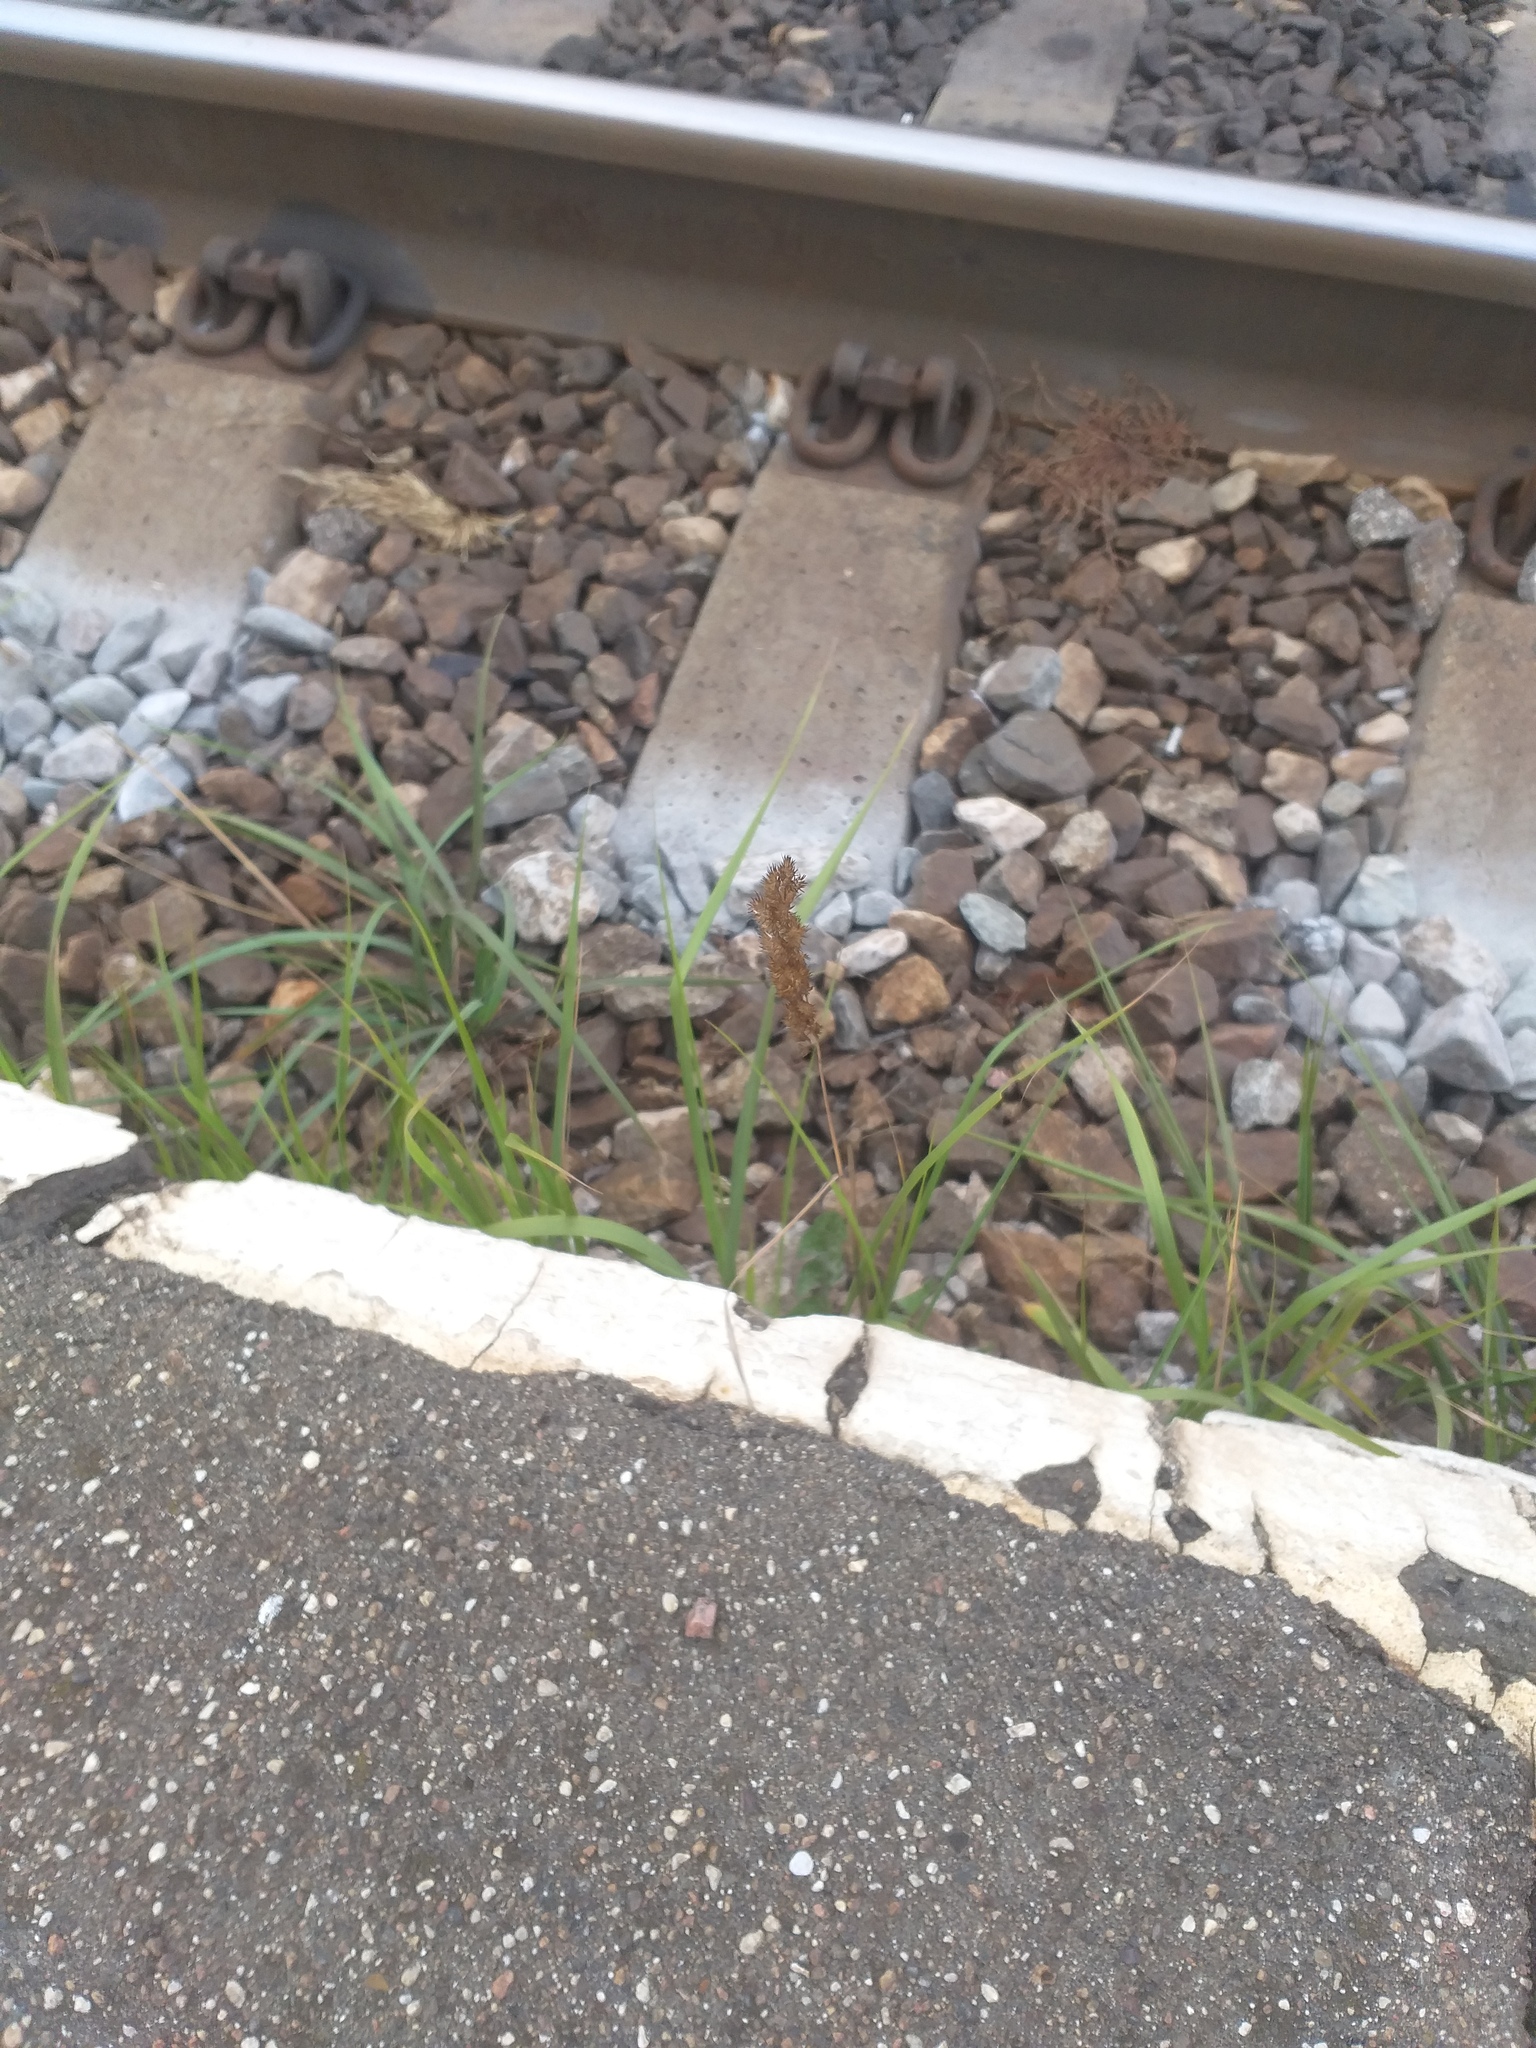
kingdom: Plantae
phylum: Tracheophyta
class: Liliopsida
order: Poales
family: Poaceae
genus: Calamagrostis
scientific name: Calamagrostis epigejos
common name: Wood small-reed
